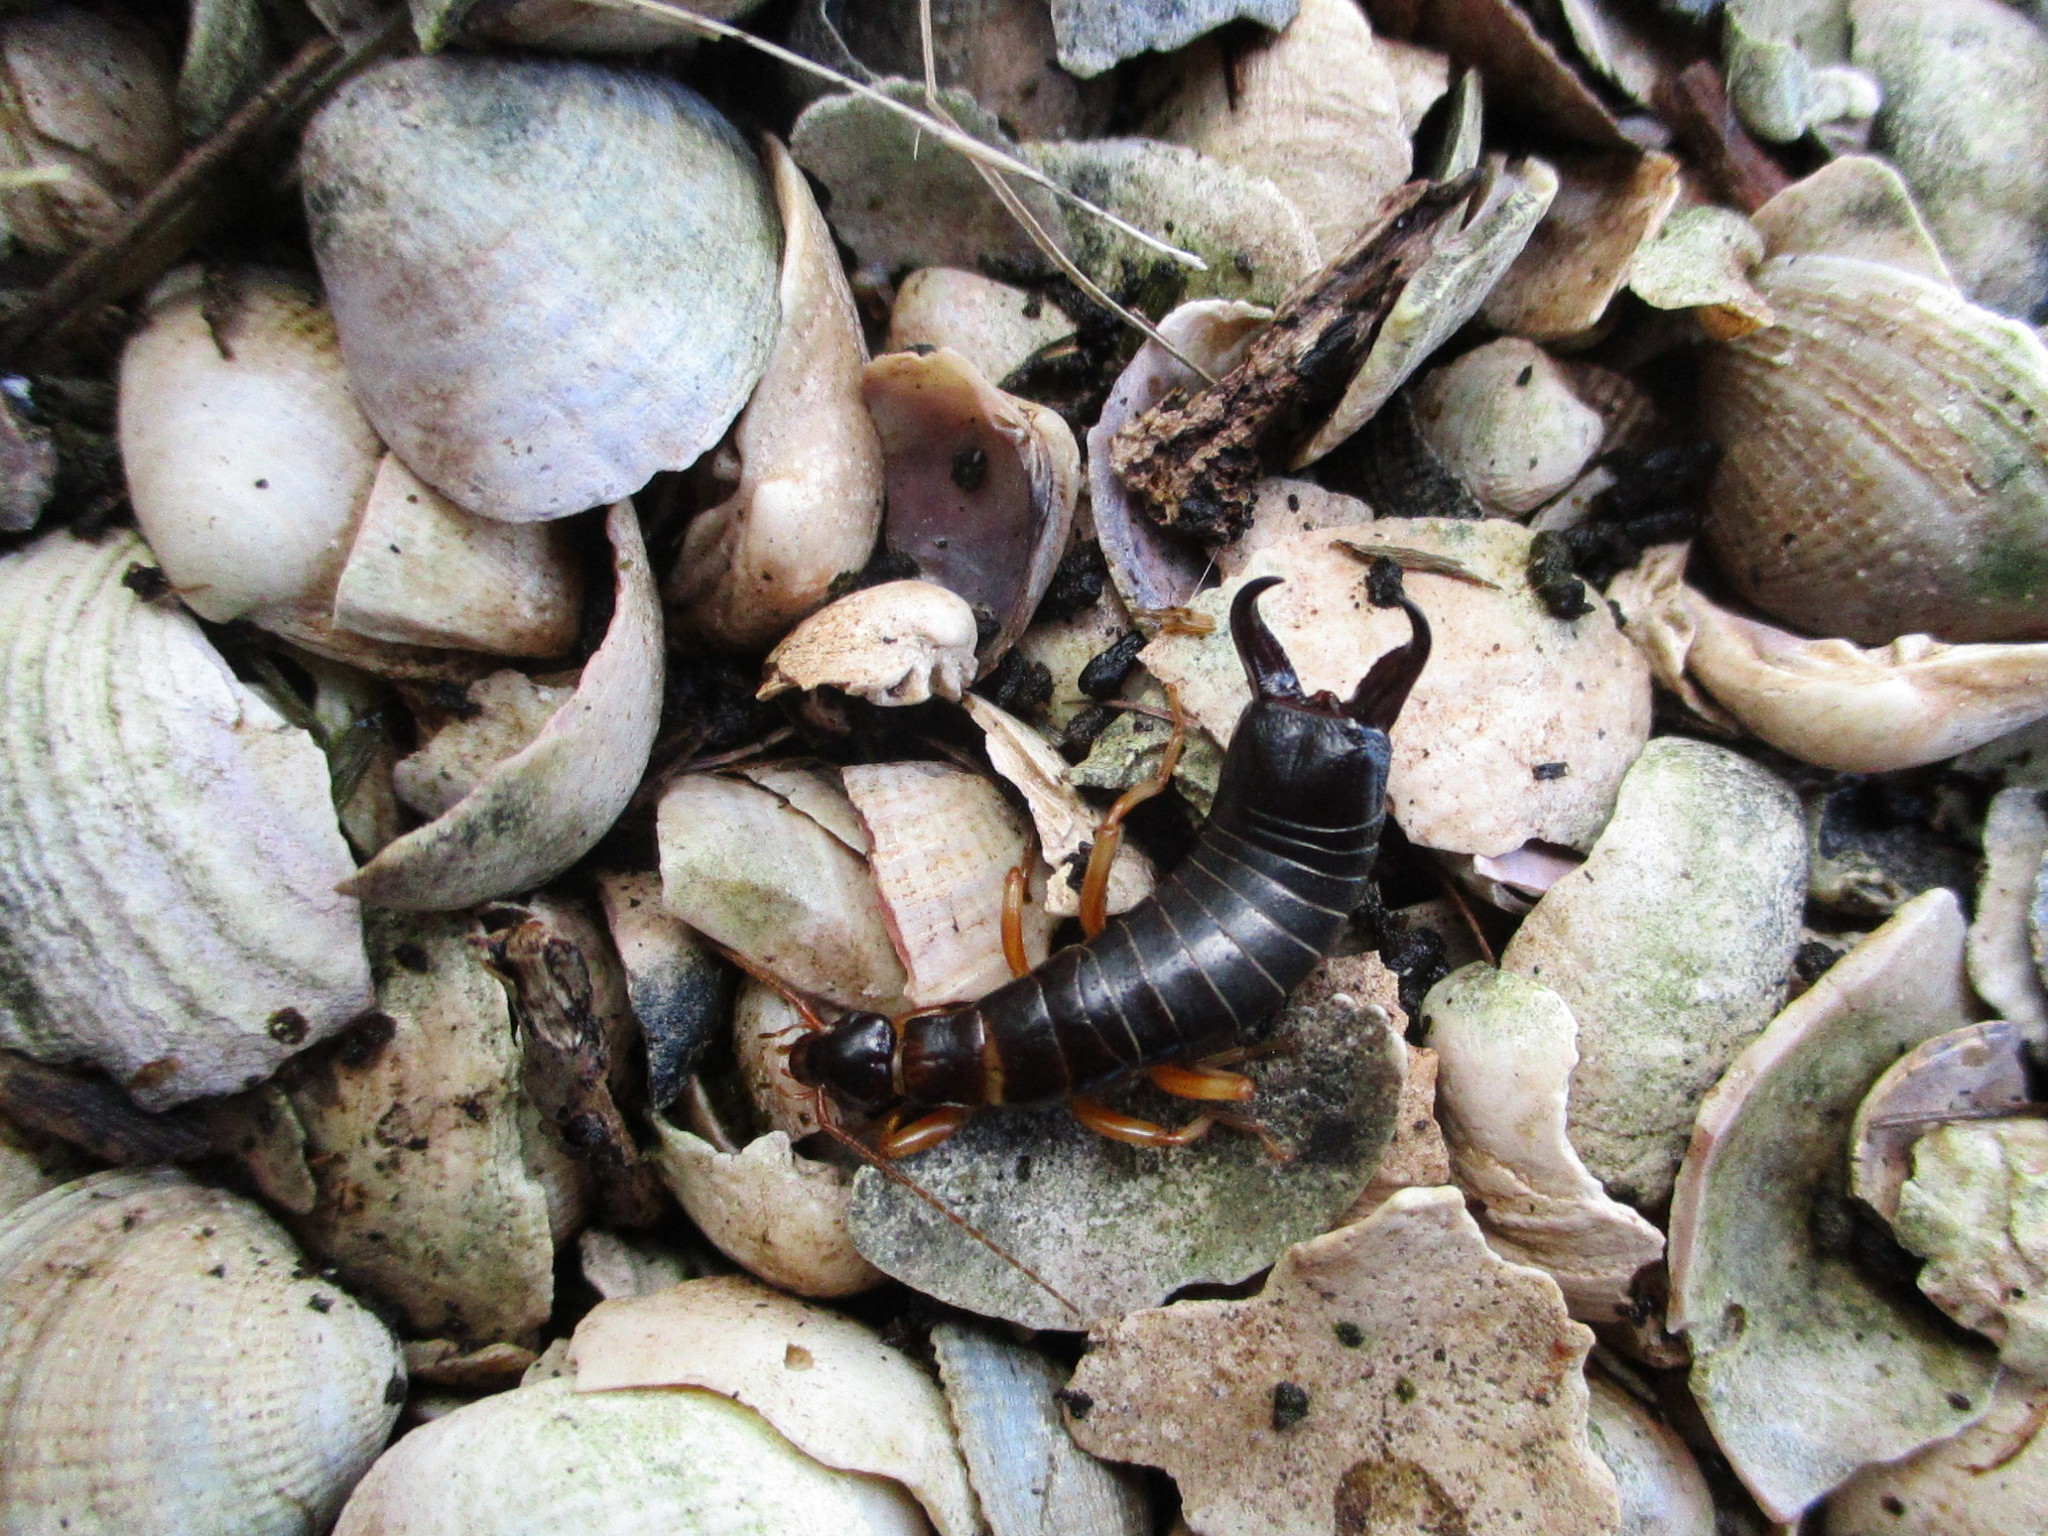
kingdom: Animalia
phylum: Arthropoda
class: Insecta
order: Dermaptera
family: Anisolabididae
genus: Anisolabis
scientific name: Anisolabis littorea
